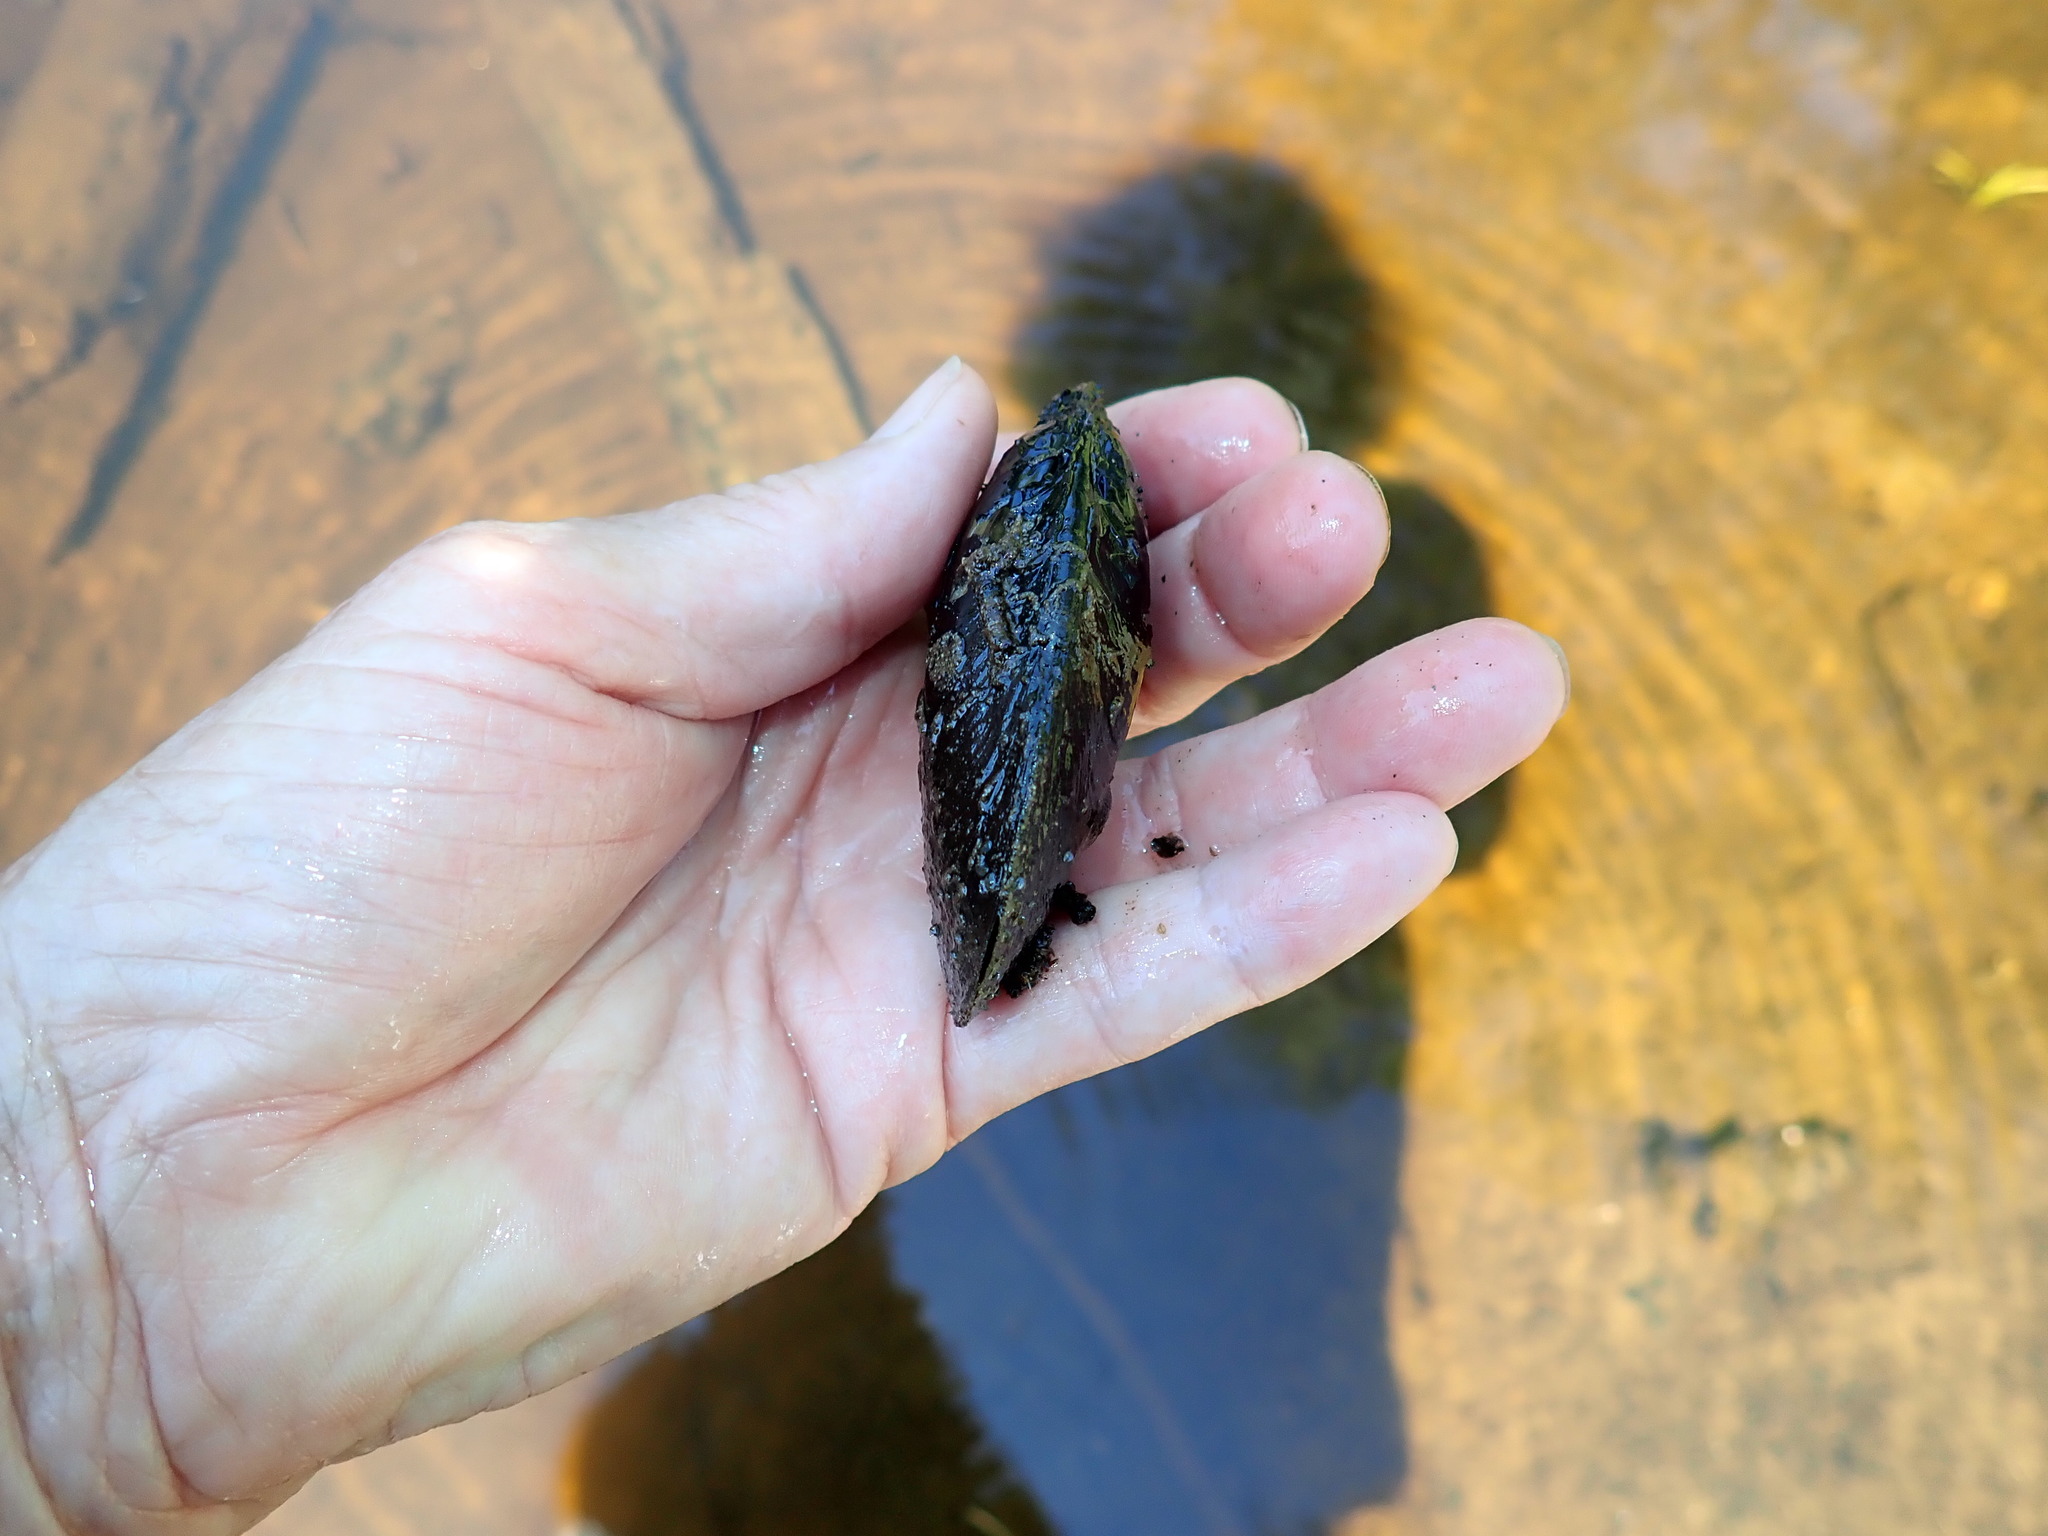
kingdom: Animalia
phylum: Mollusca
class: Bivalvia
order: Unionida
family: Unionidae
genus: Elliptio
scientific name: Elliptio complanata
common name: Eastern elliptio
